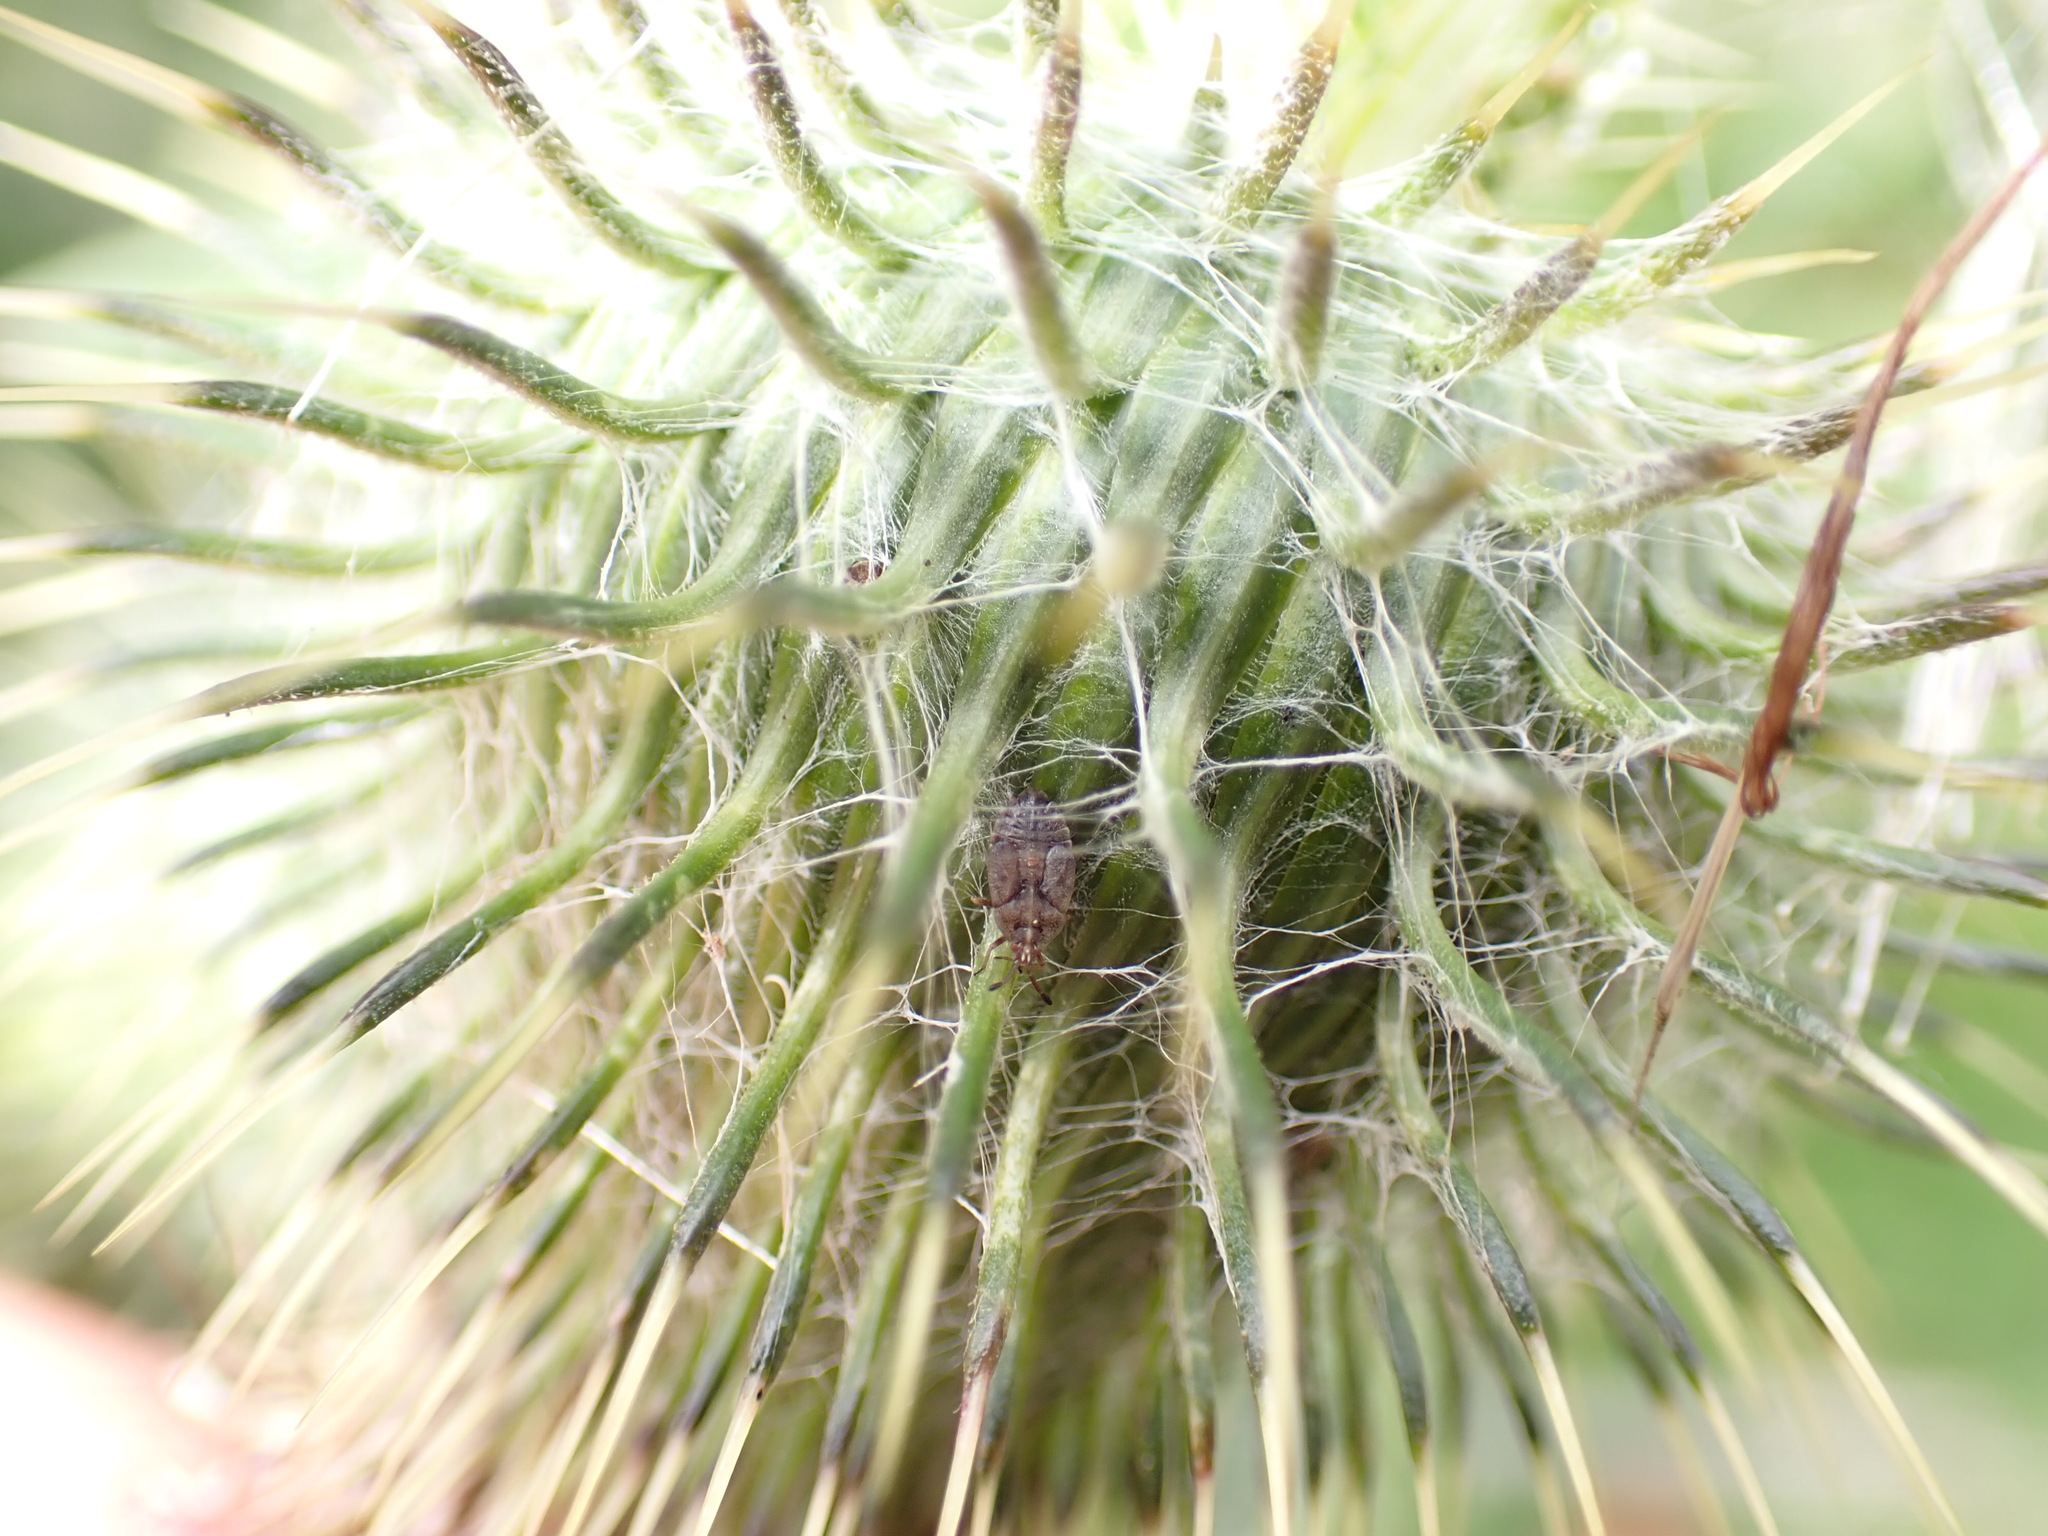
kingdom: Animalia
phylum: Arthropoda
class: Insecta
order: Hemiptera
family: Tingidae
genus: Tingis
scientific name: Tingis cardui
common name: Spear thistle lacebug
